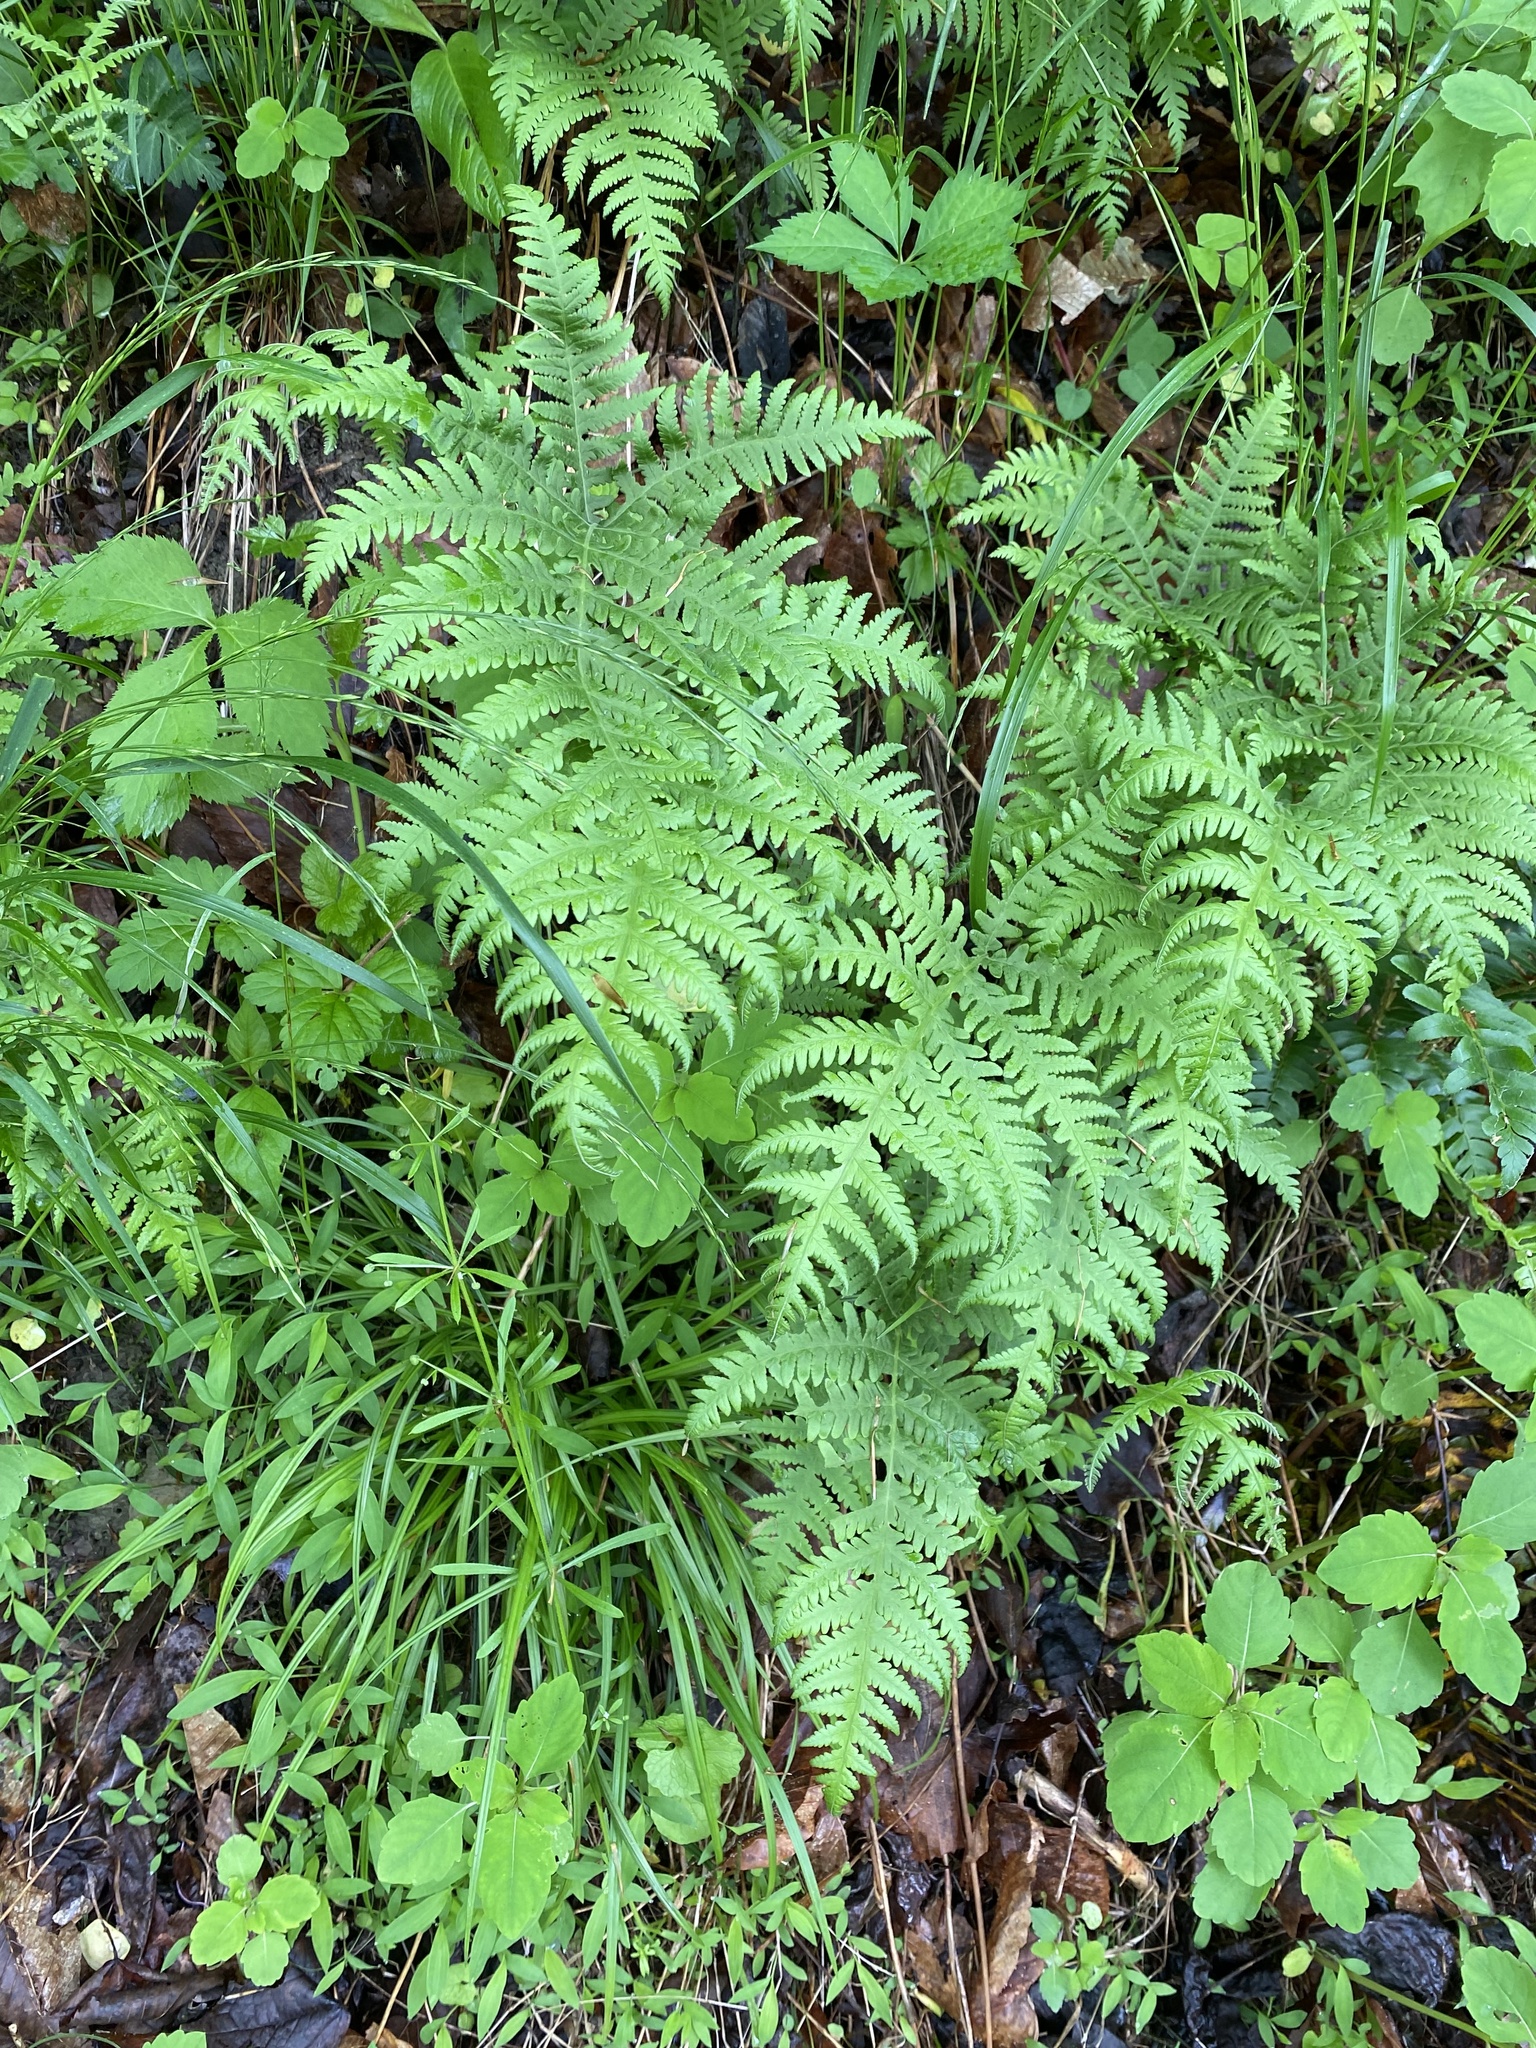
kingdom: Plantae
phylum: Tracheophyta
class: Polypodiopsida
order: Polypodiales
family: Thelypteridaceae
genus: Phegopteris
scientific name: Phegopteris hexagonoptera
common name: Broad beech fern
